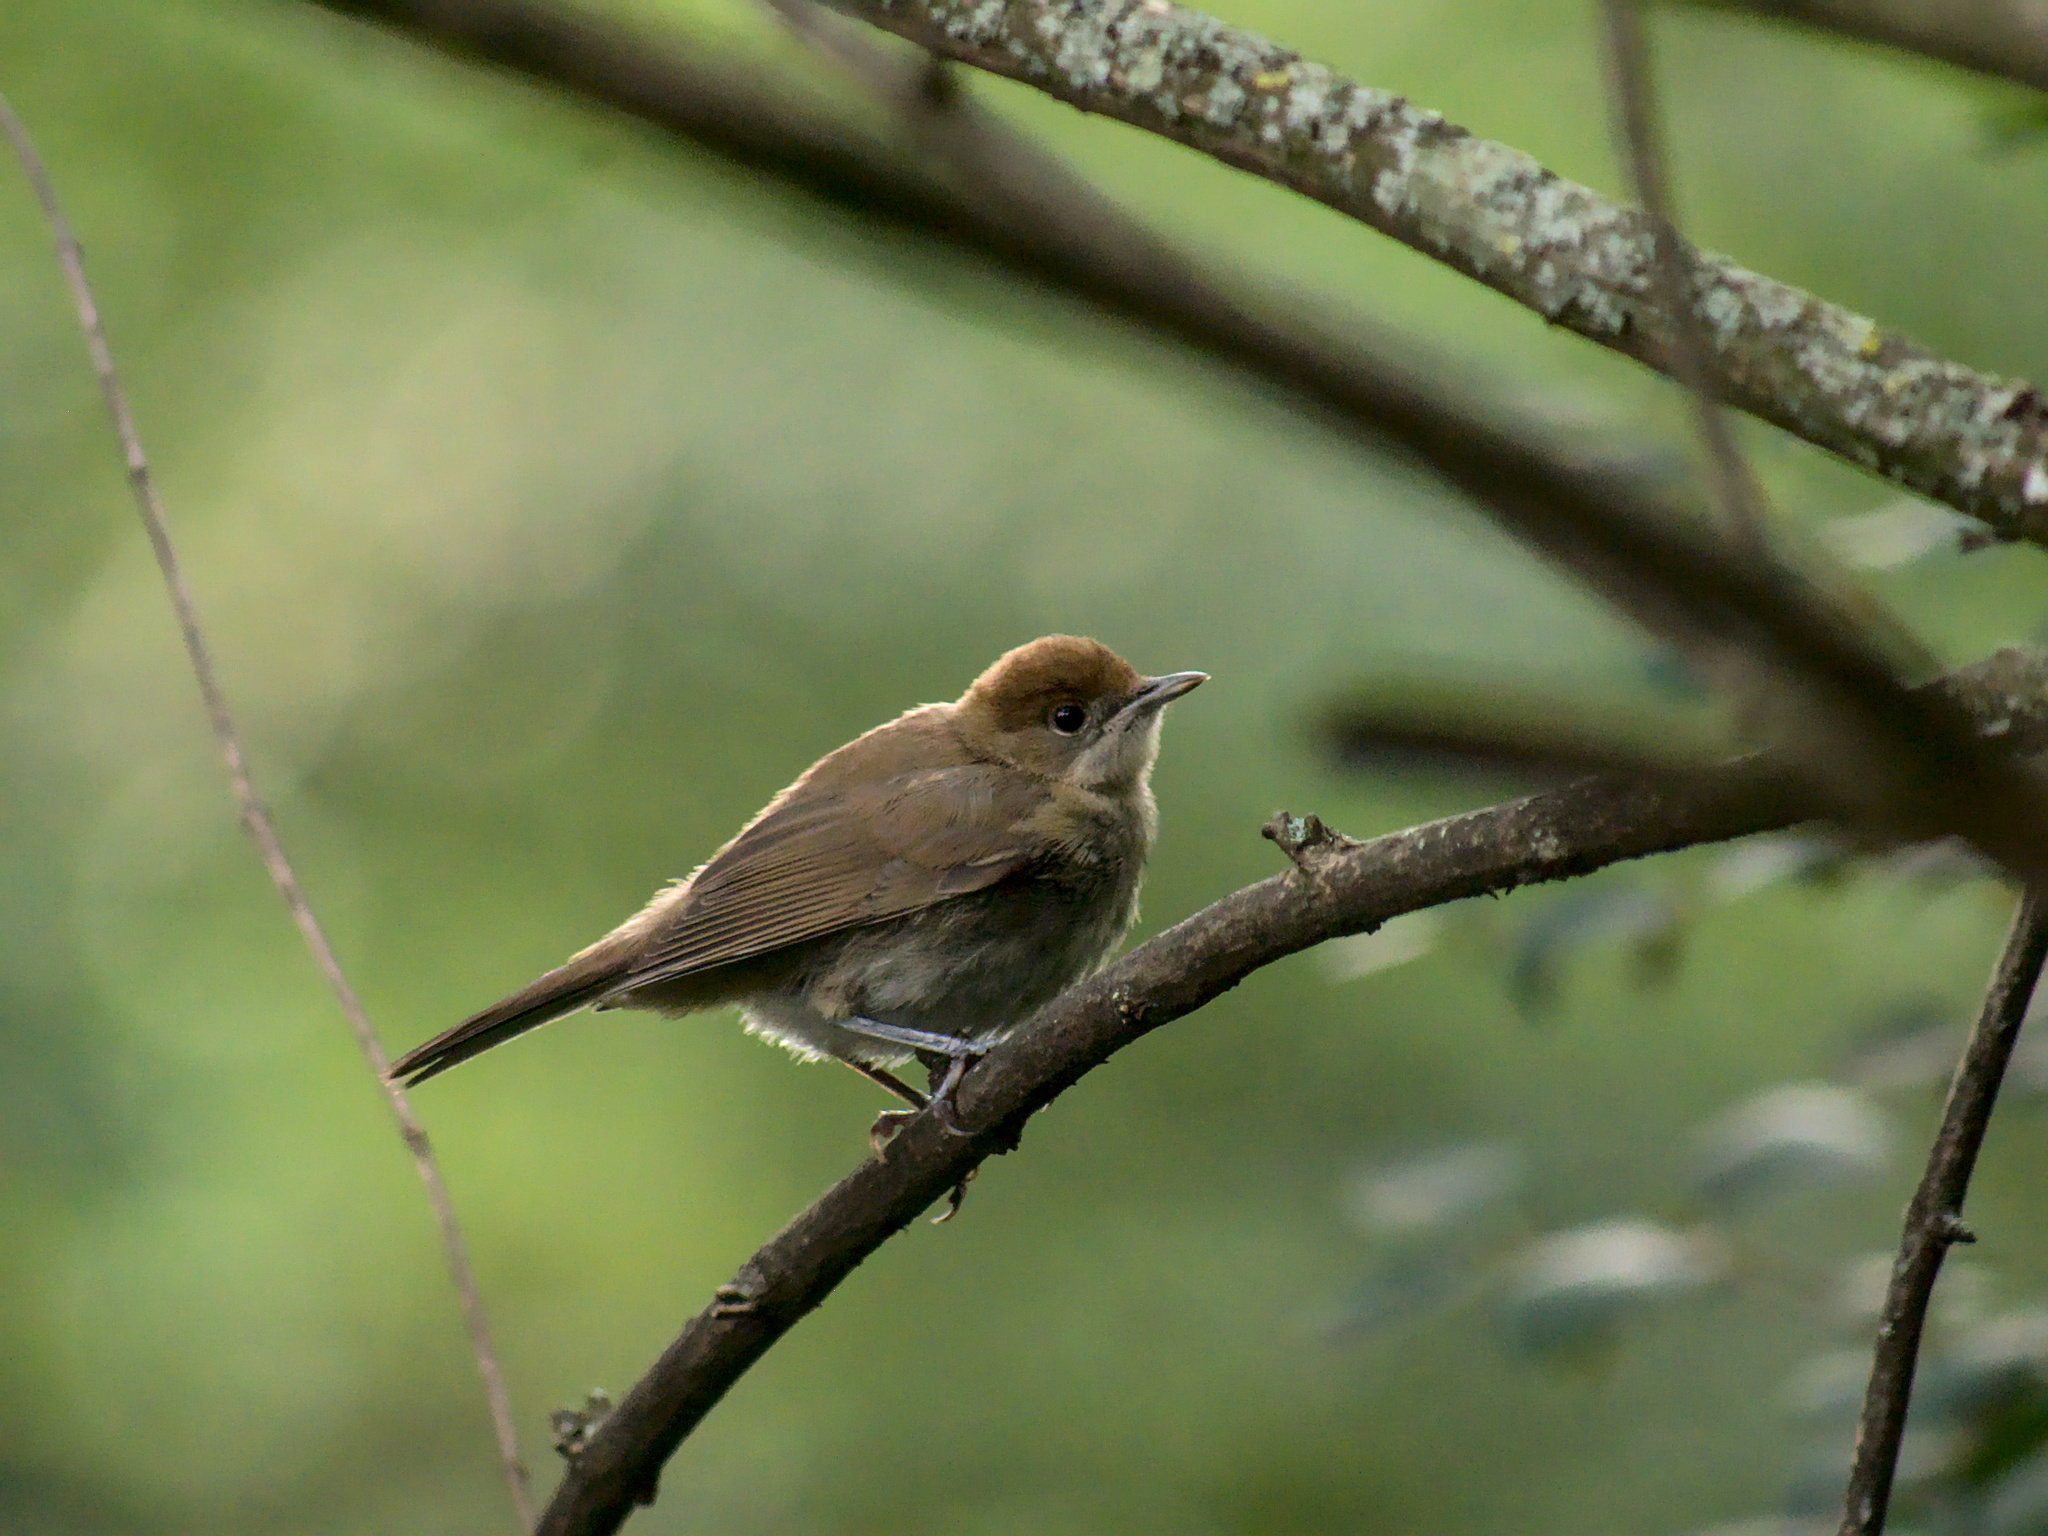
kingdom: Animalia
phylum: Chordata
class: Aves
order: Passeriformes
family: Sylviidae
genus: Sylvia
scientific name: Sylvia atricapilla
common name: Eurasian blackcap
